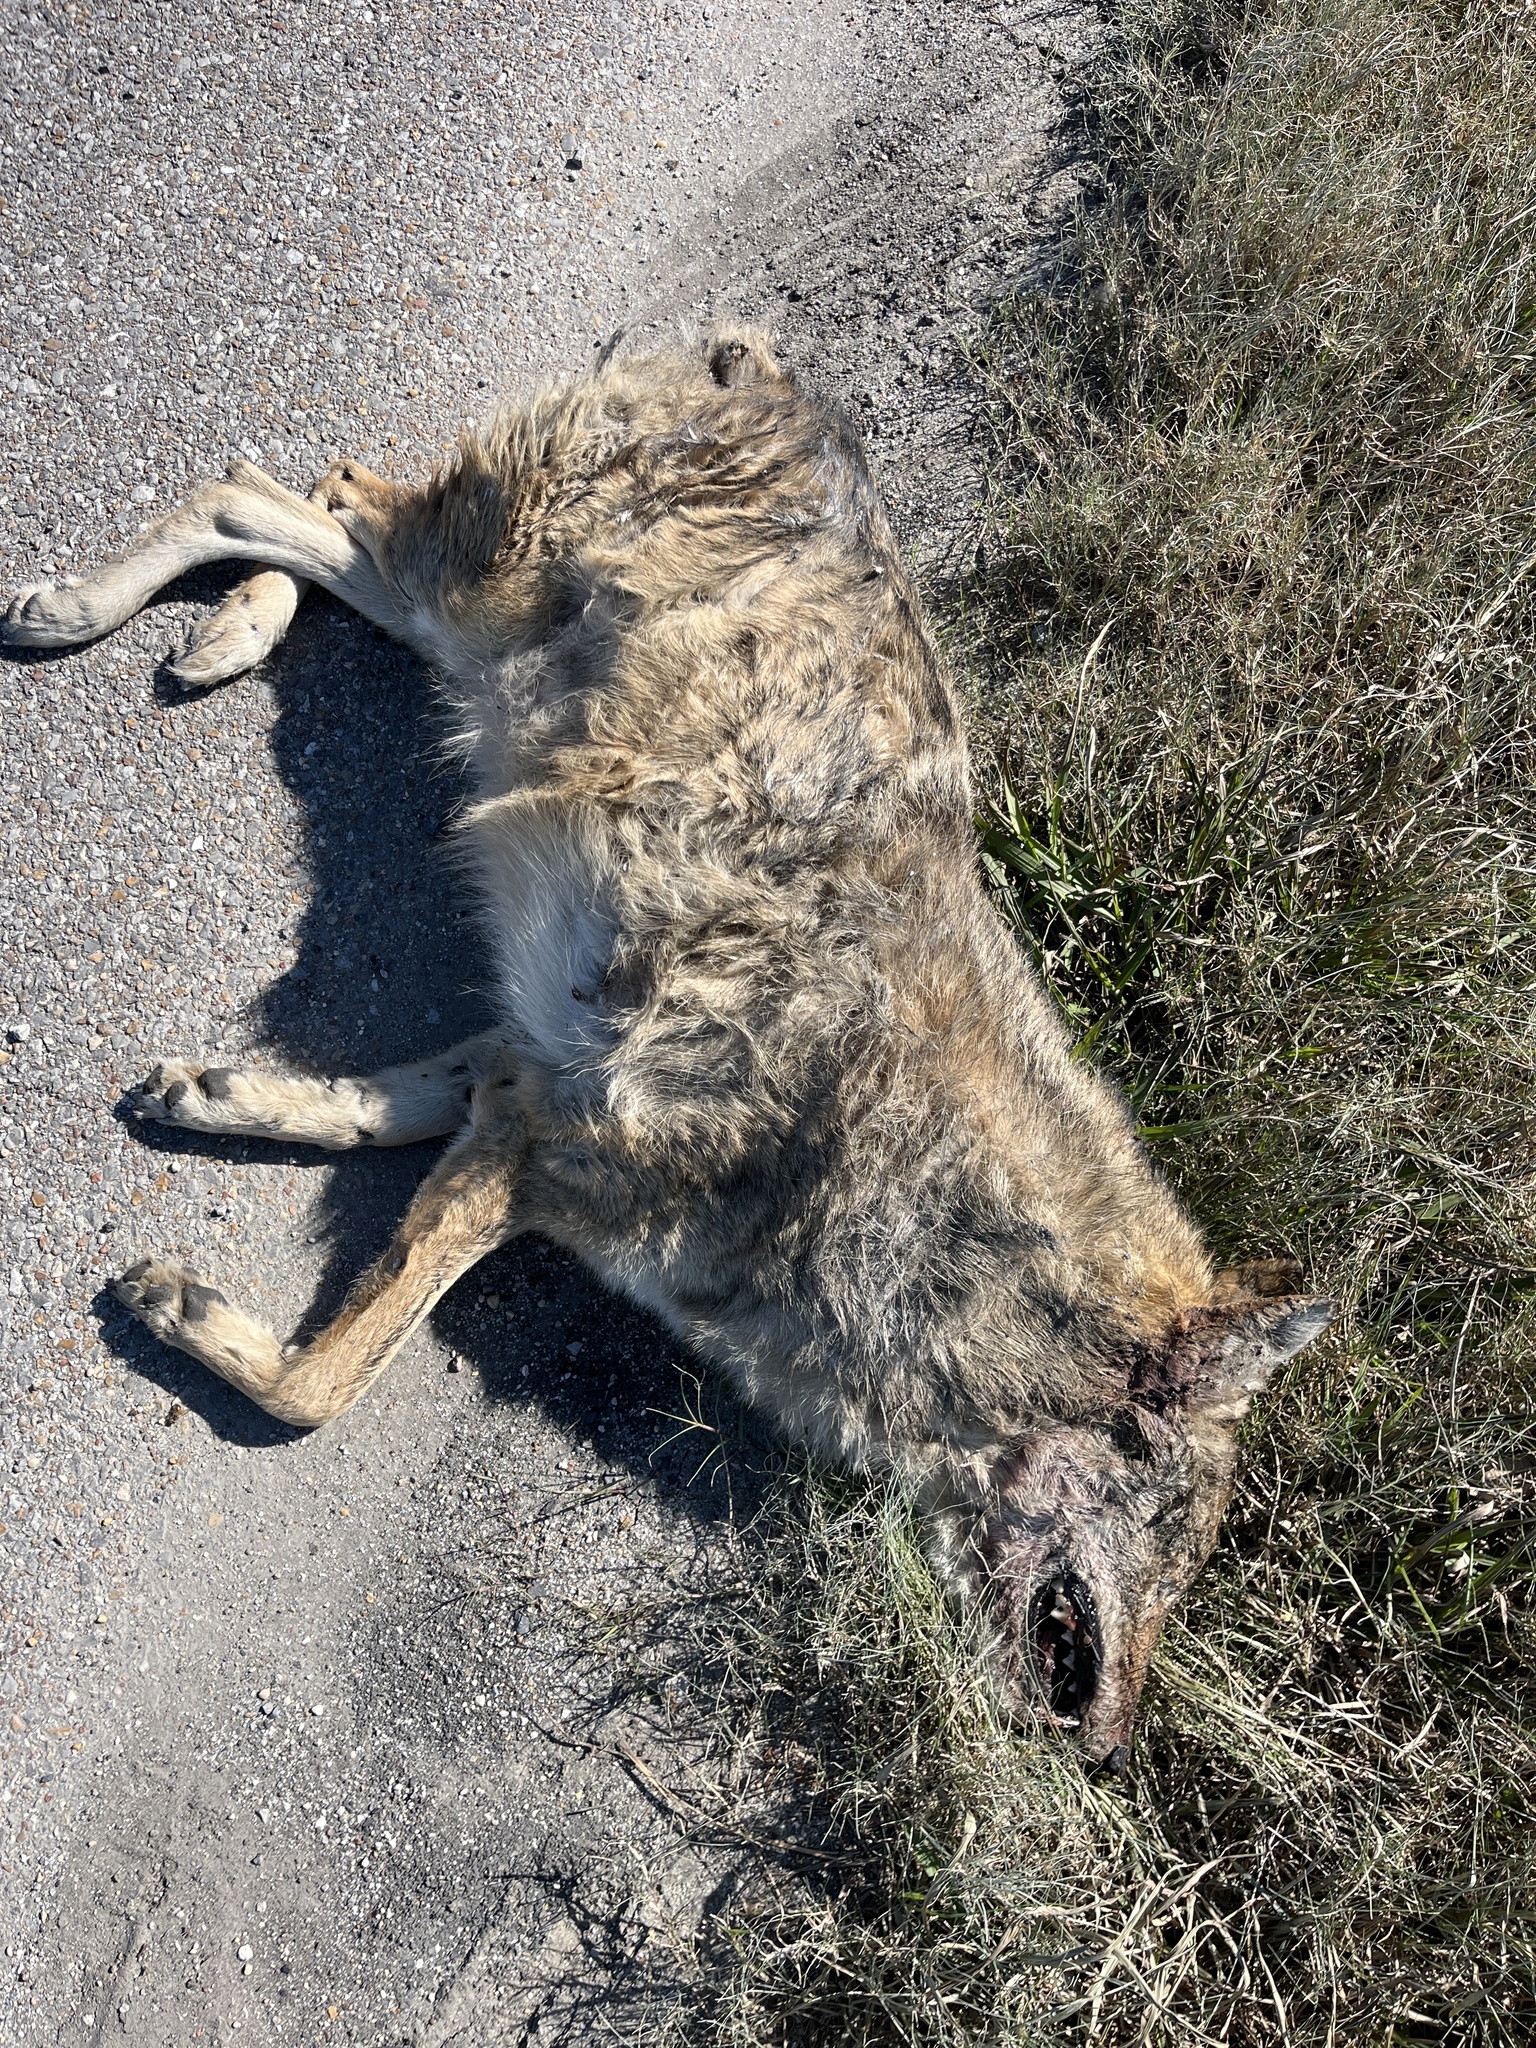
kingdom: Animalia
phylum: Chordata
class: Mammalia
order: Carnivora
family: Canidae
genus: Canis
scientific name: Canis latrans
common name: Coyote
